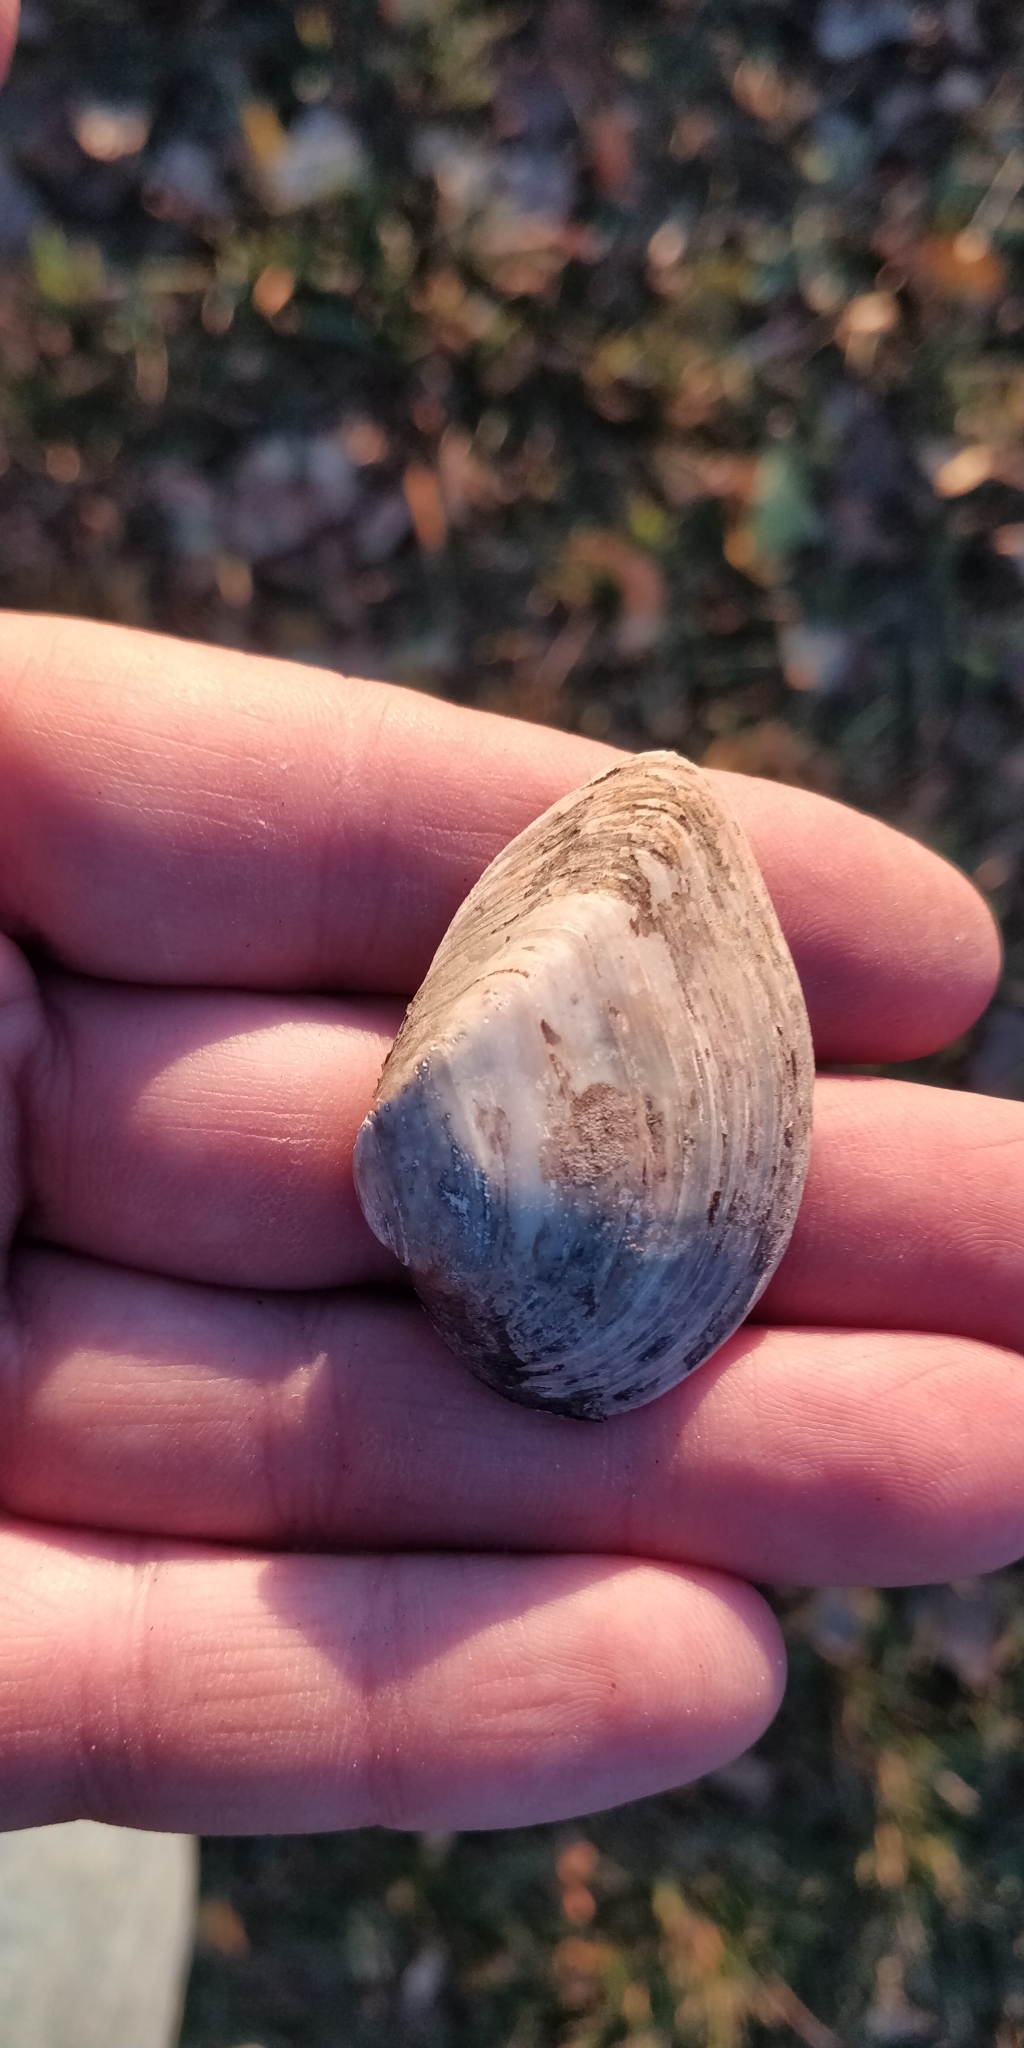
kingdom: Animalia
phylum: Mollusca
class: Bivalvia
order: Unionida
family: Unionidae
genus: Truncilla
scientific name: Truncilla truncata
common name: Deertoe
